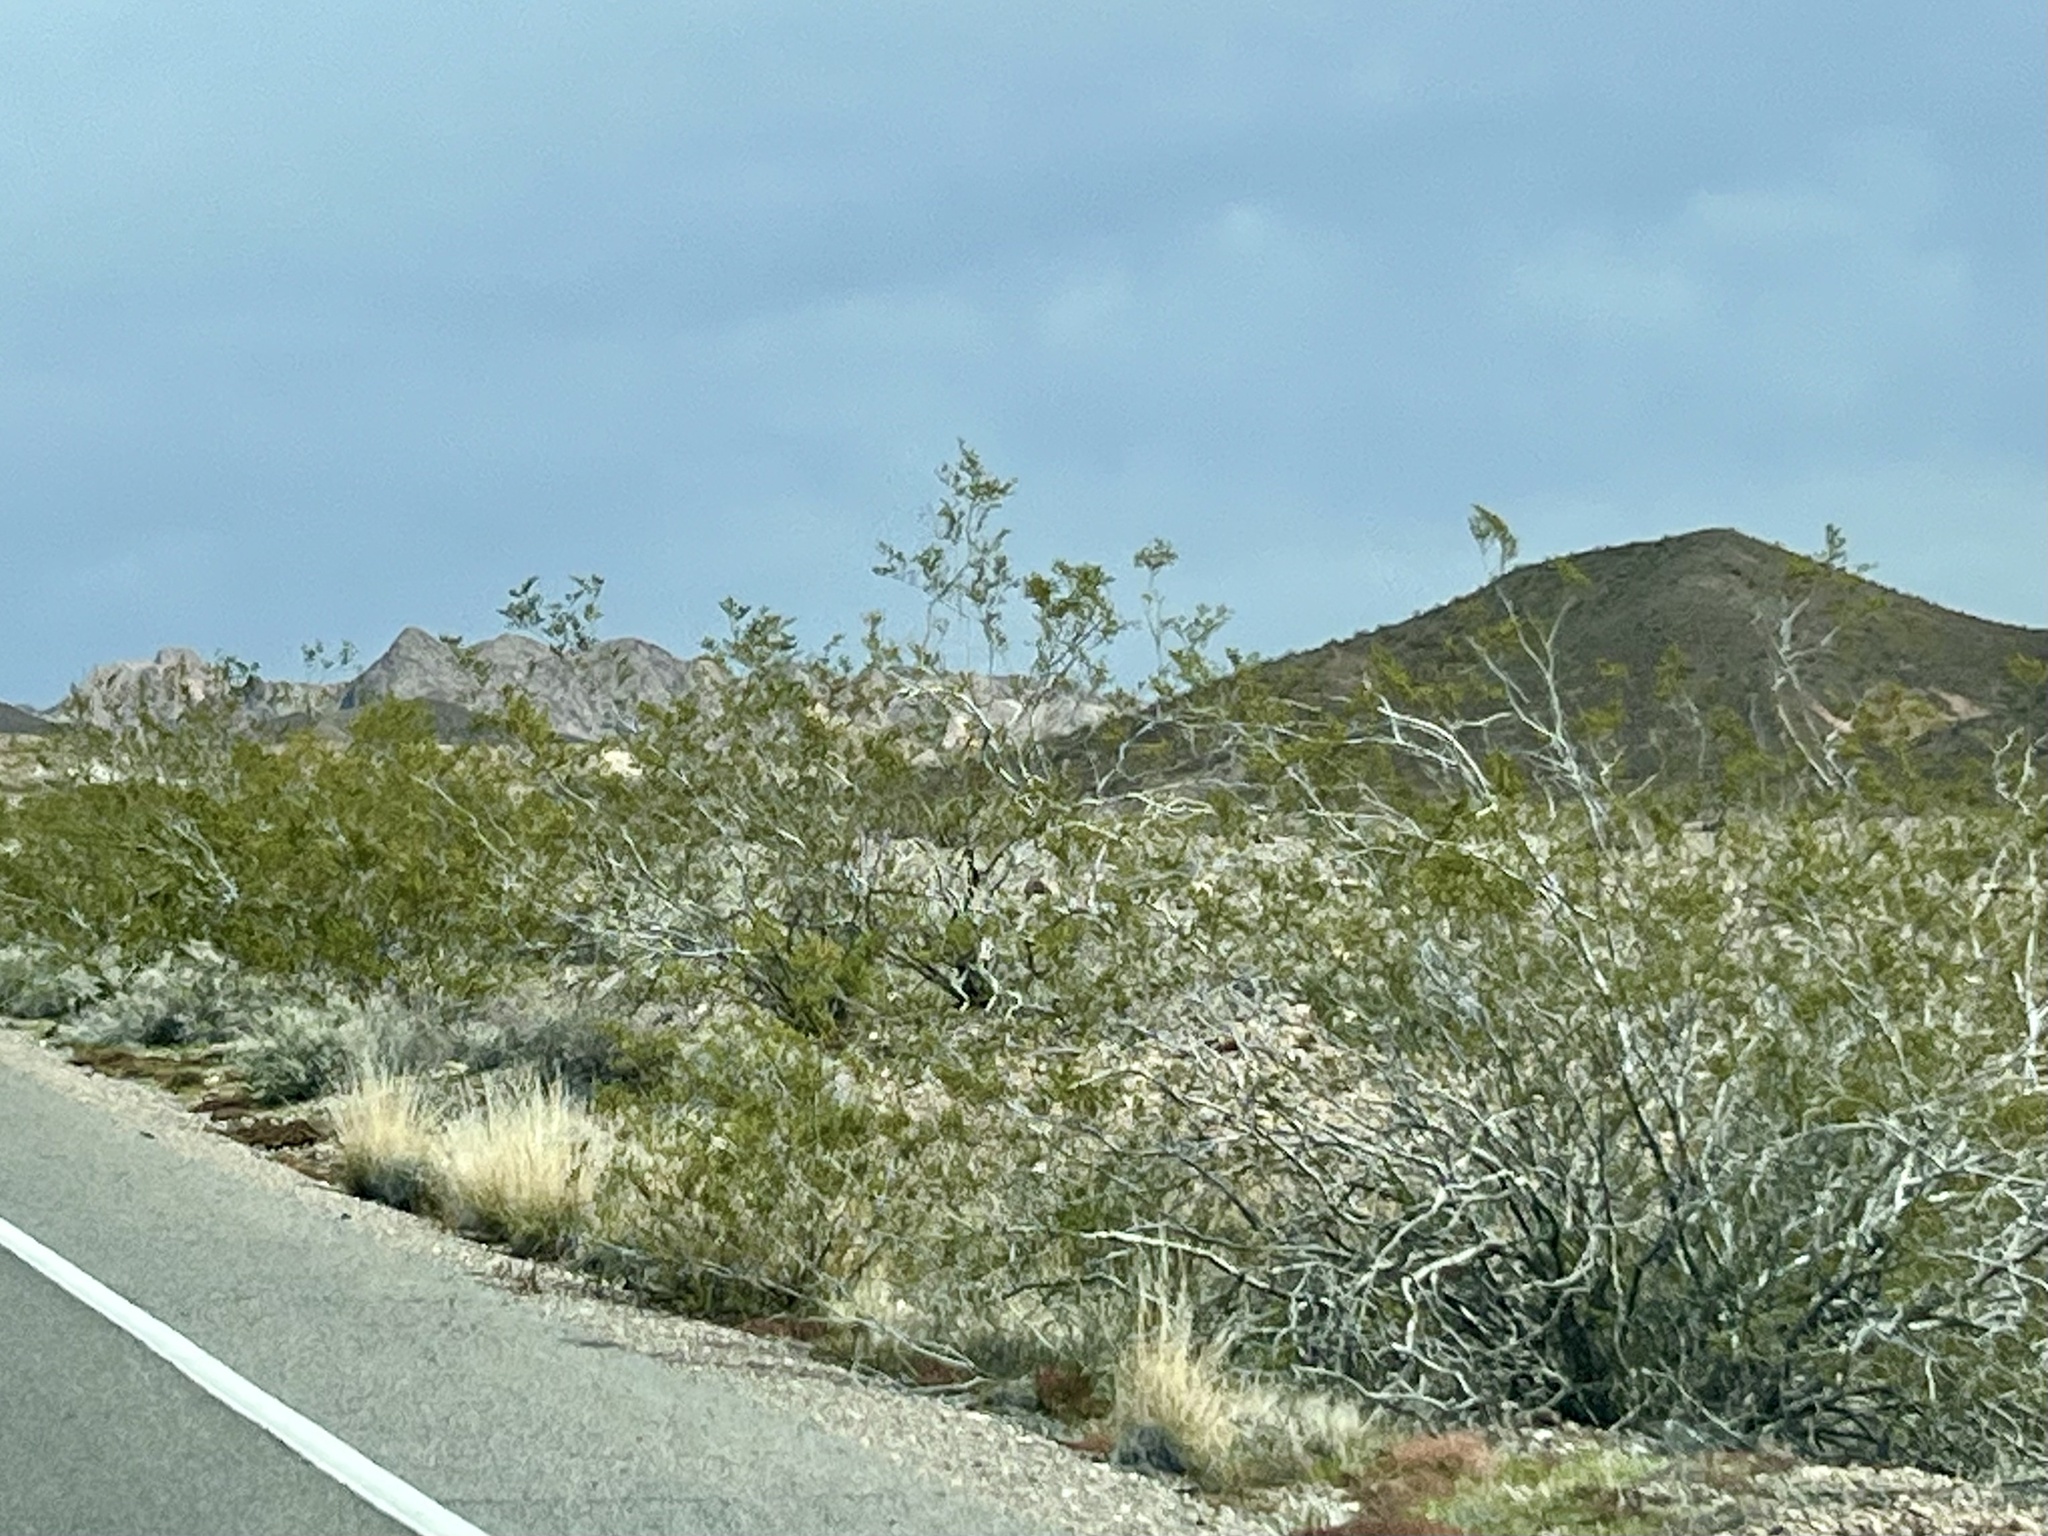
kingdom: Plantae
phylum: Tracheophyta
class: Magnoliopsida
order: Zygophyllales
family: Zygophyllaceae
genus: Larrea
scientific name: Larrea tridentata
